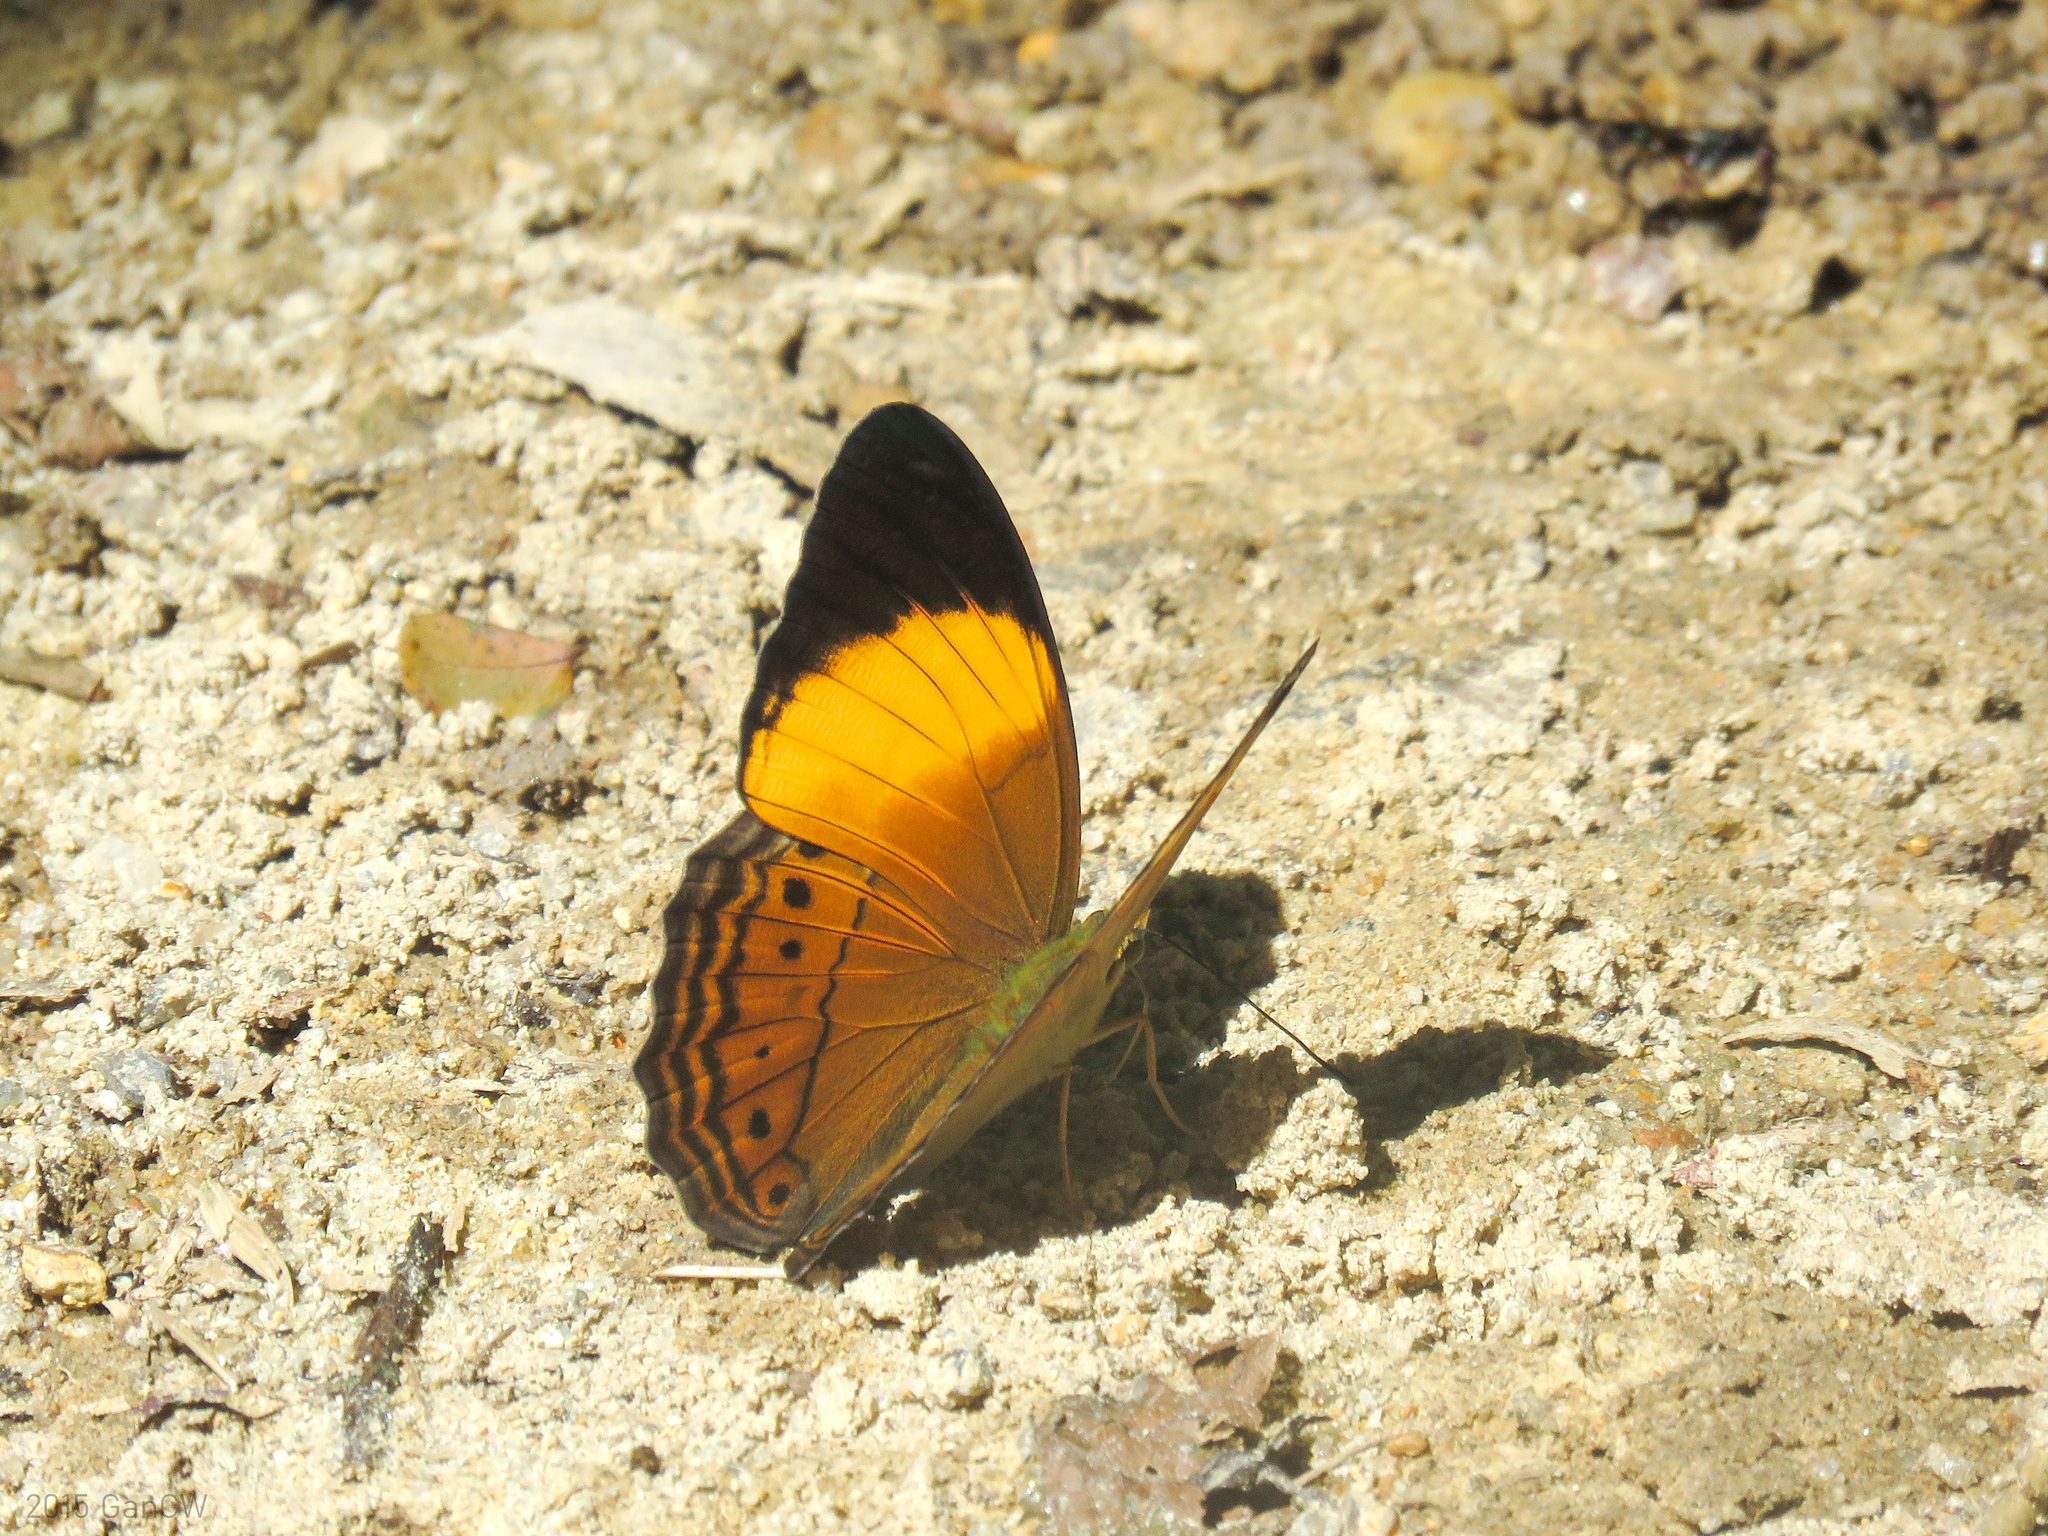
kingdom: Animalia
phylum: Arthropoda
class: Insecta
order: Lepidoptera
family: Nymphalidae
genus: Cirrochroa
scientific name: Cirrochroa orissa
